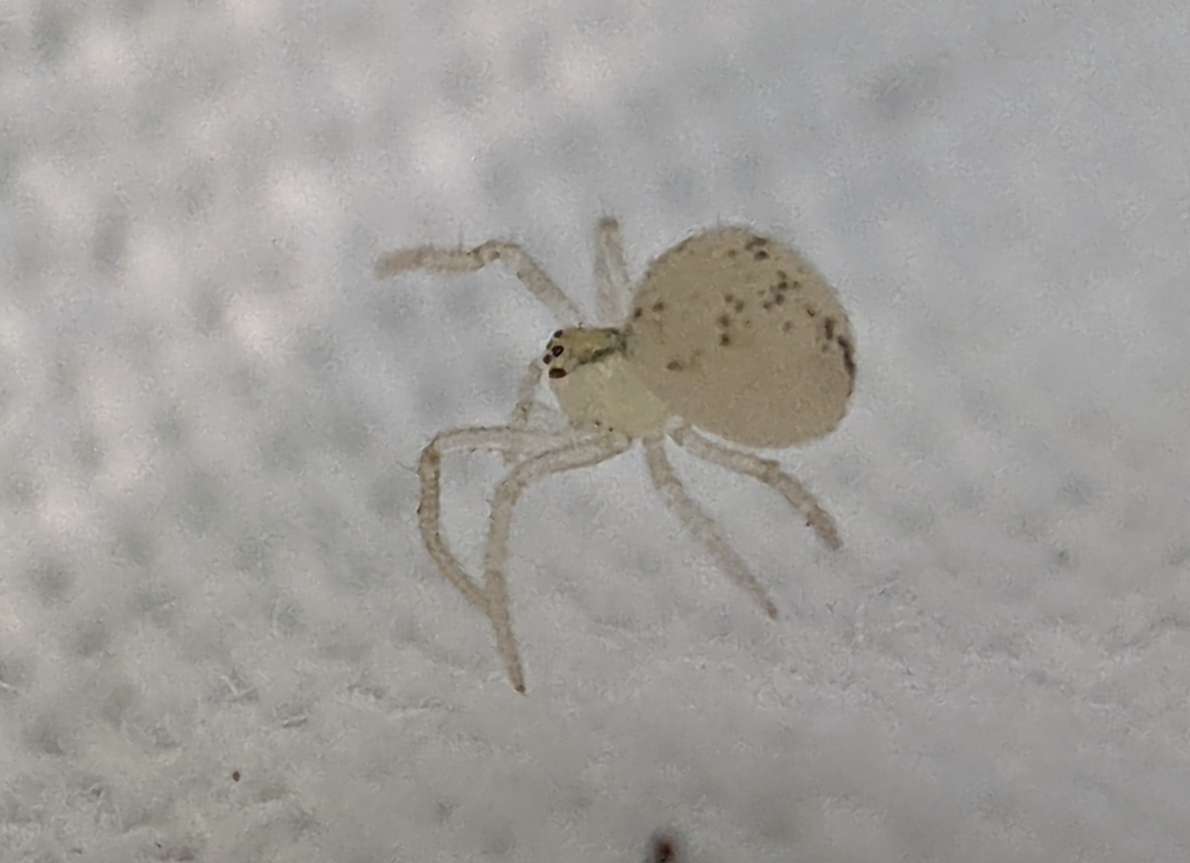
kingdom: Animalia
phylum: Arthropoda
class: Arachnida
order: Araneae
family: Theridiidae
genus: Paidiscura
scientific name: Paidiscura pallens
